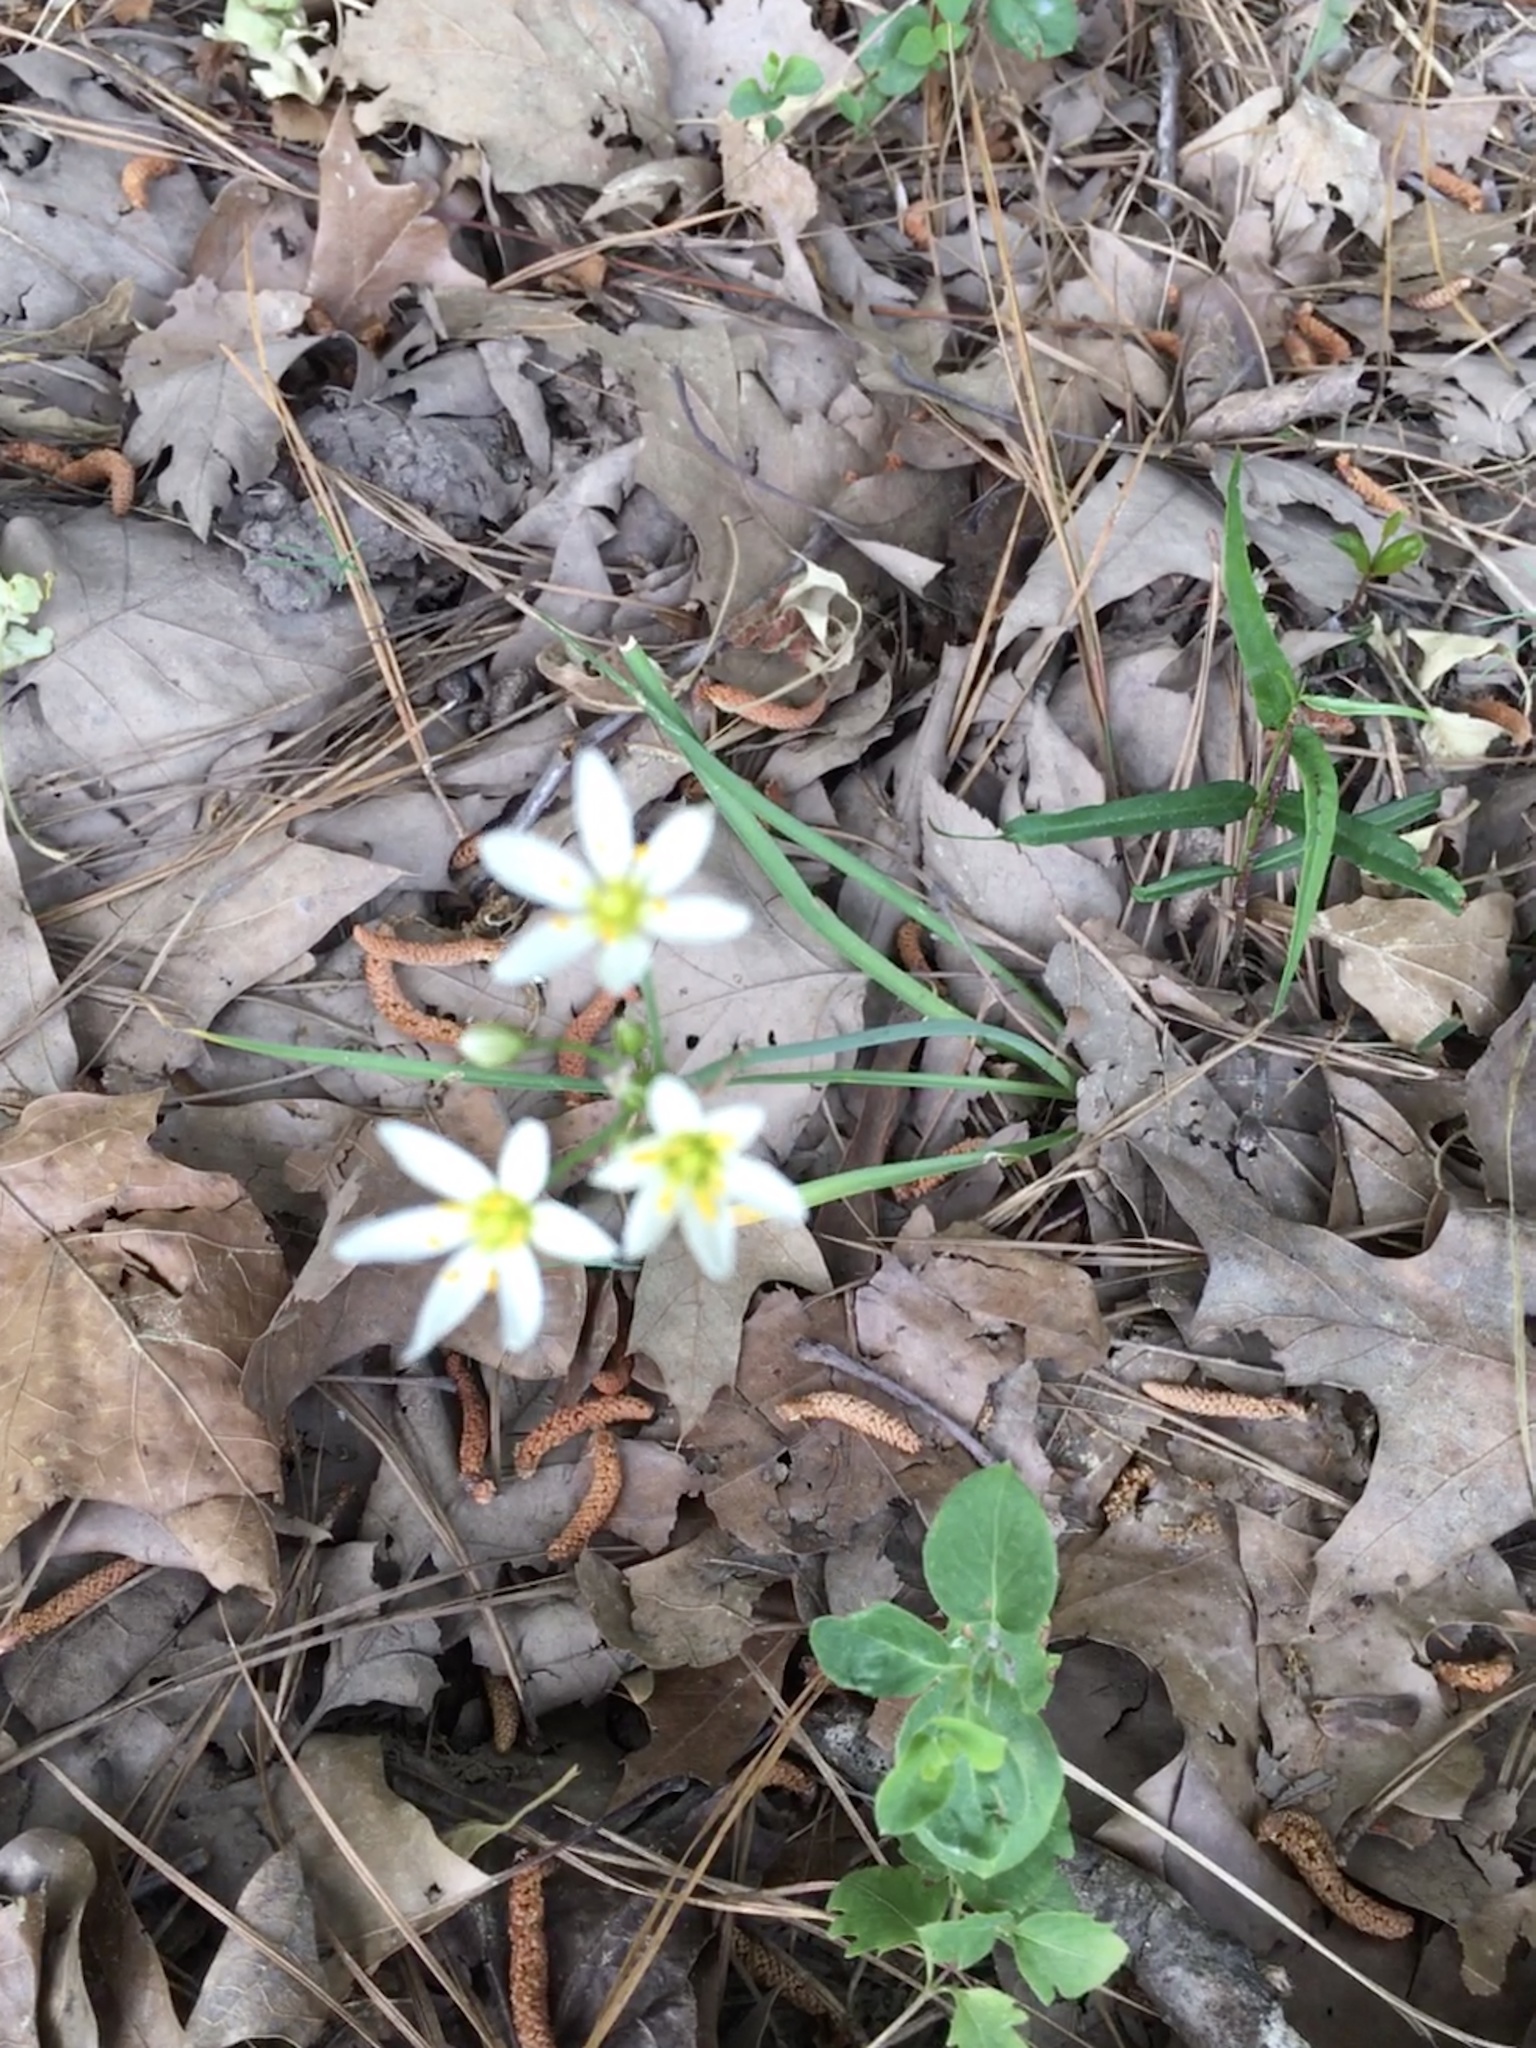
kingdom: Plantae
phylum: Tracheophyta
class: Liliopsida
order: Asparagales
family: Amaryllidaceae
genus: Nothoscordum
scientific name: Nothoscordum bivalve
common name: Crow-poison
